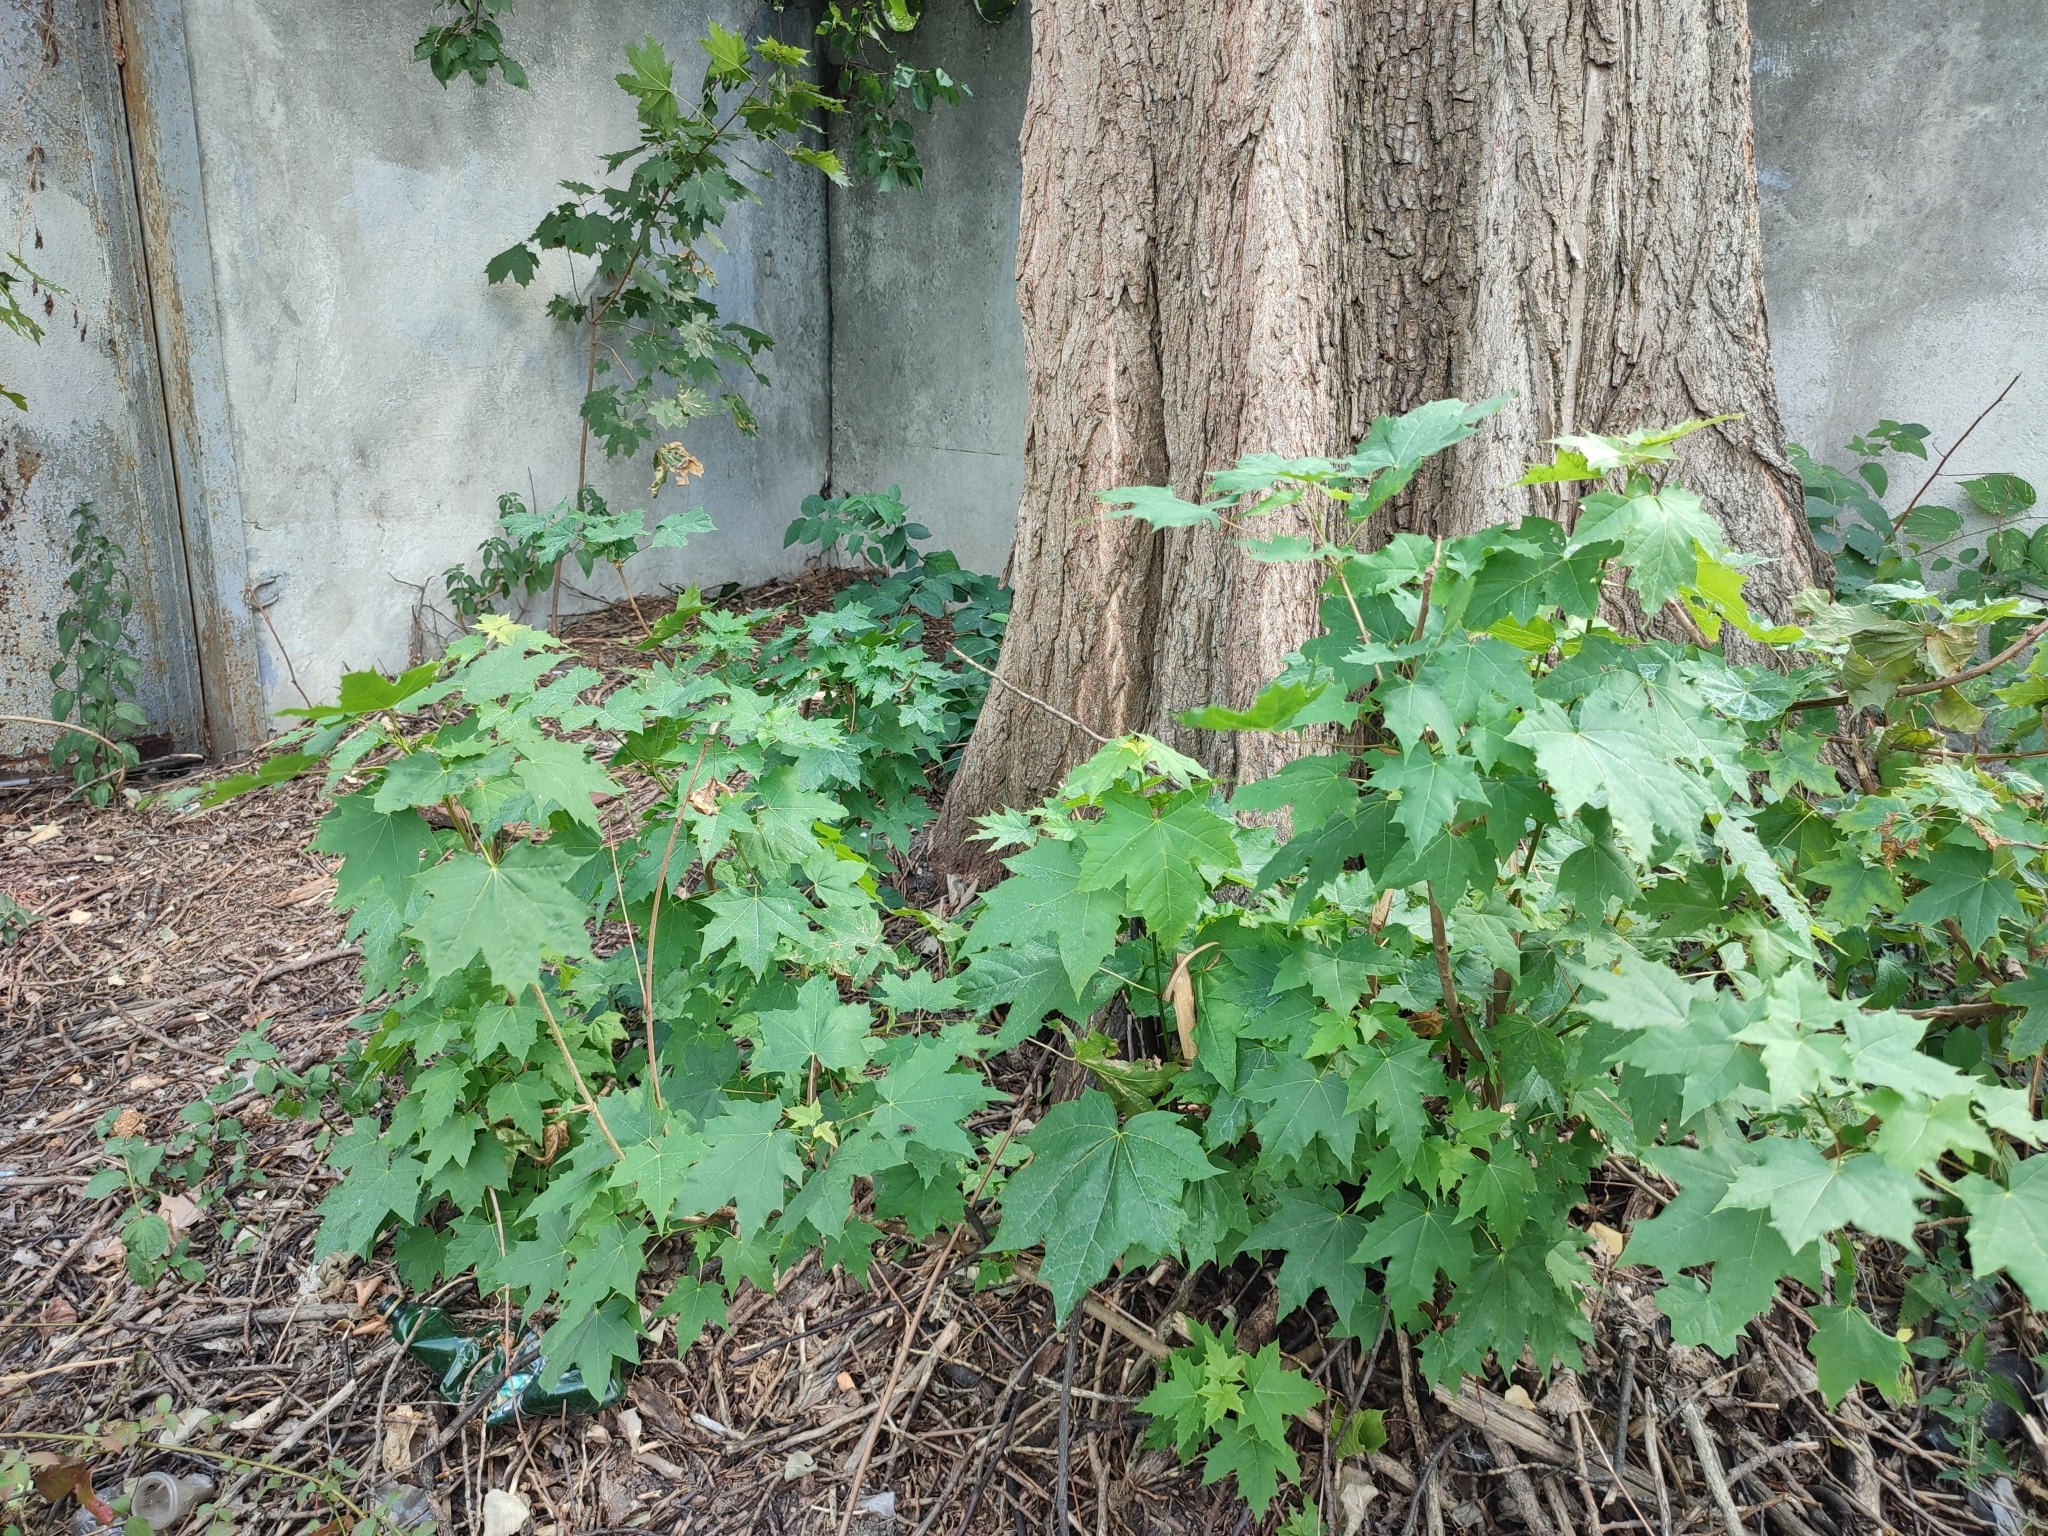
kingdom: Plantae
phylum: Tracheophyta
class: Magnoliopsida
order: Sapindales
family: Sapindaceae
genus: Acer
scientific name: Acer platanoides
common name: Norway maple
